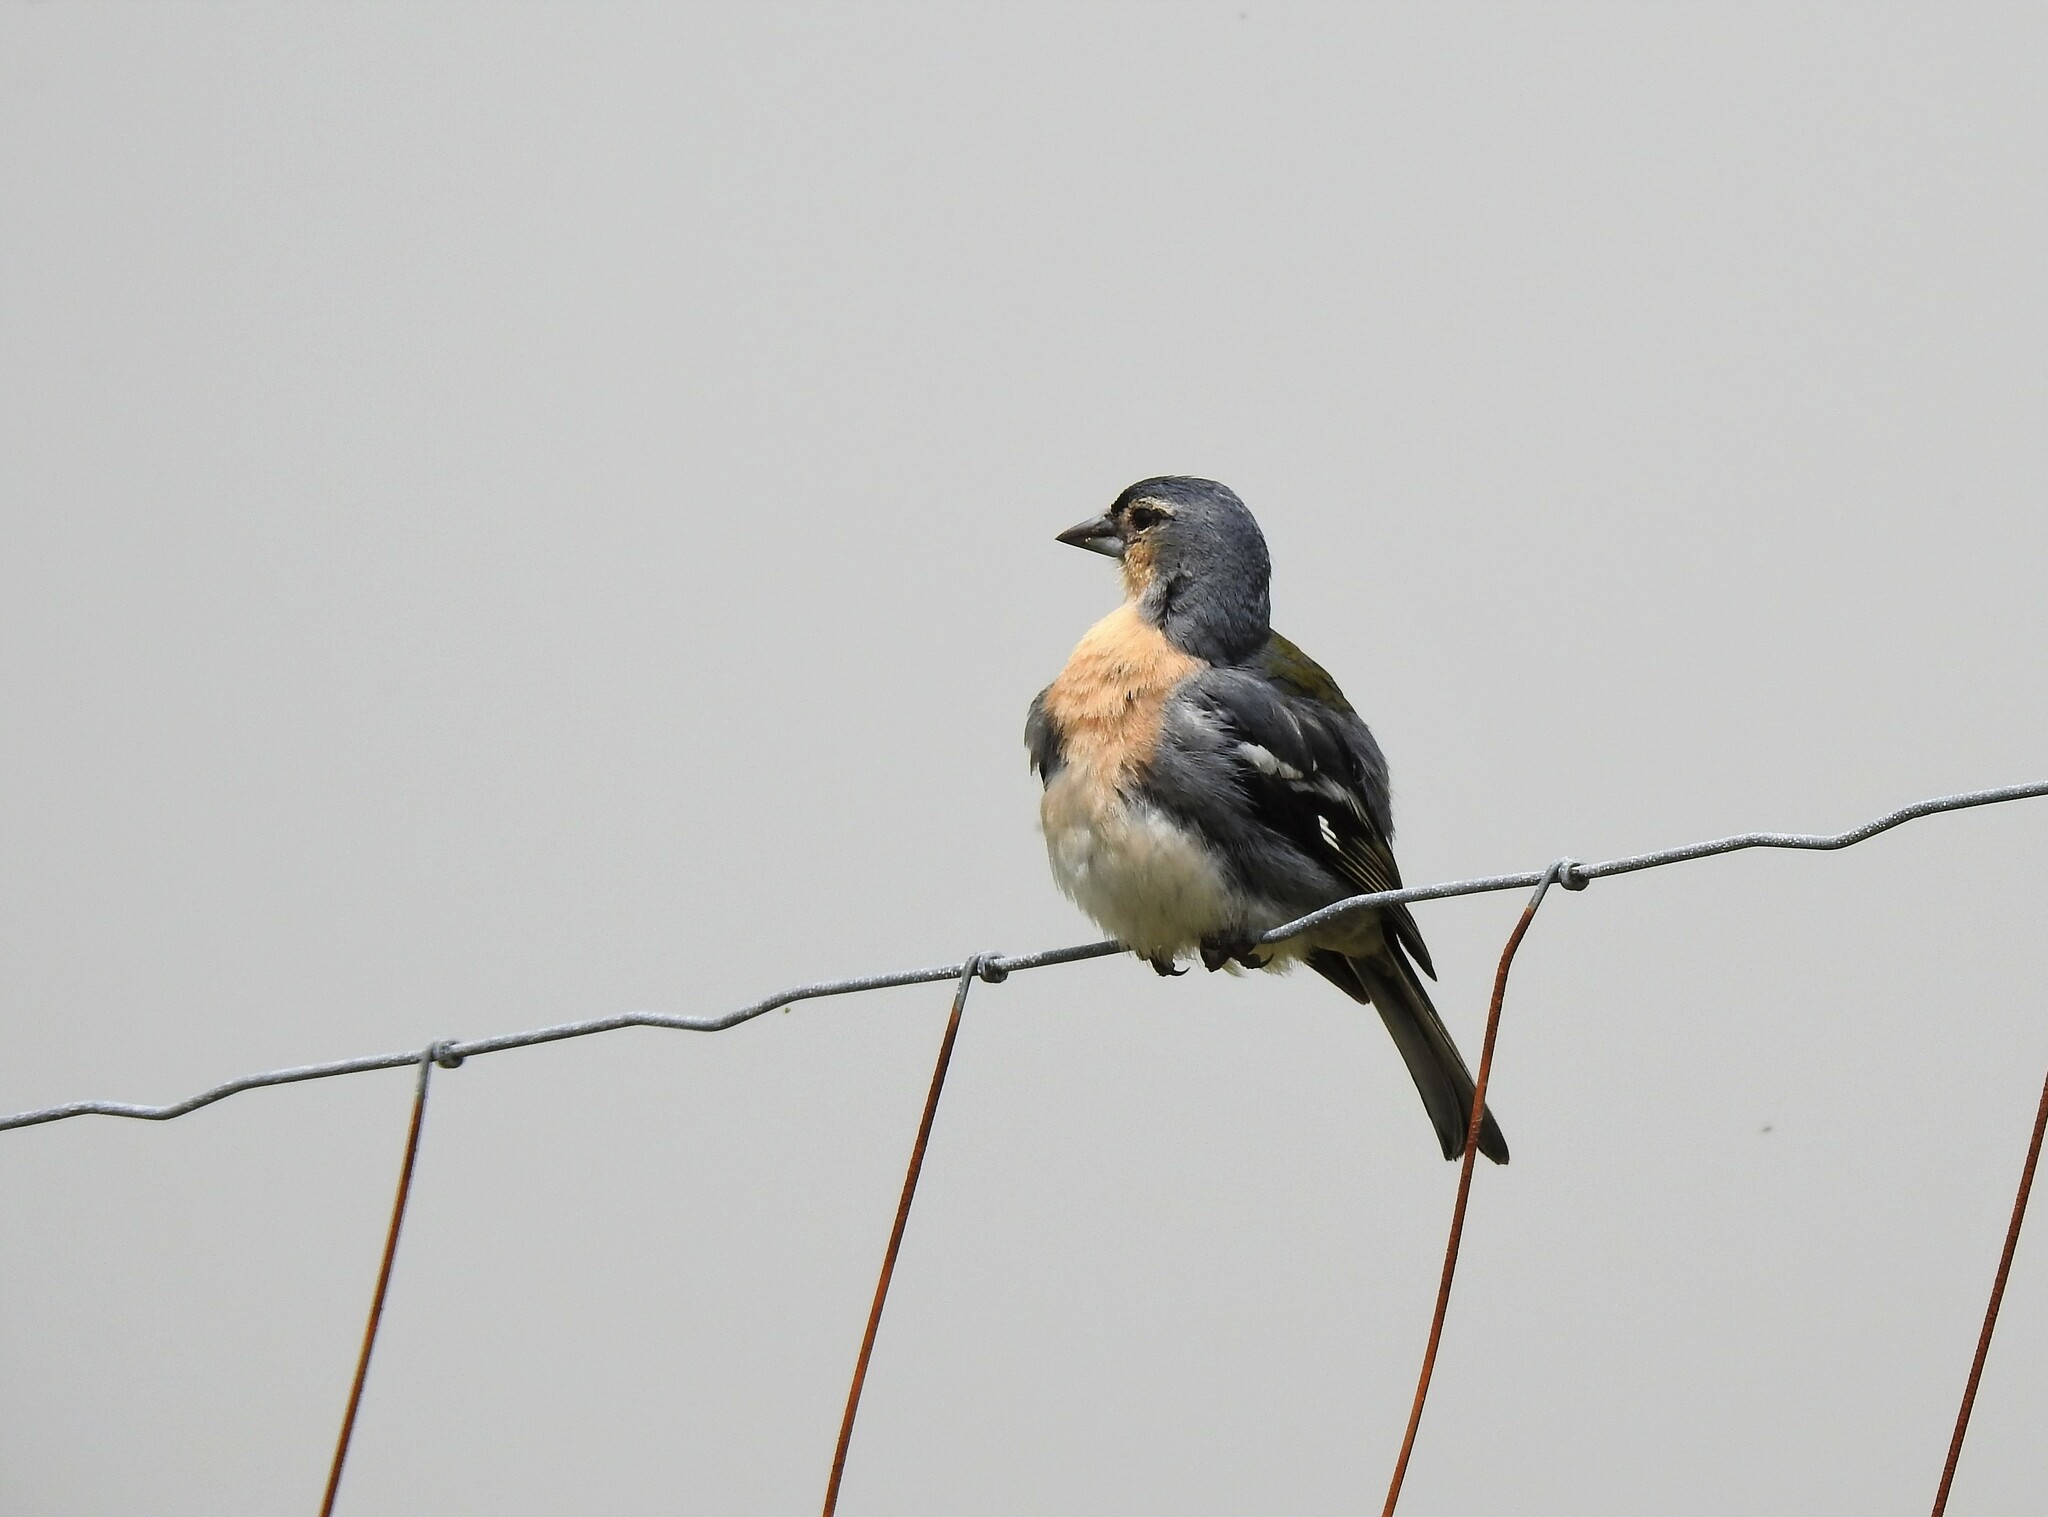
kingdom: Animalia
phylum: Chordata
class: Aves
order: Passeriformes
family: Fringillidae
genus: Fringilla
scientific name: Fringilla moreletti
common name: Azores chaffinch
